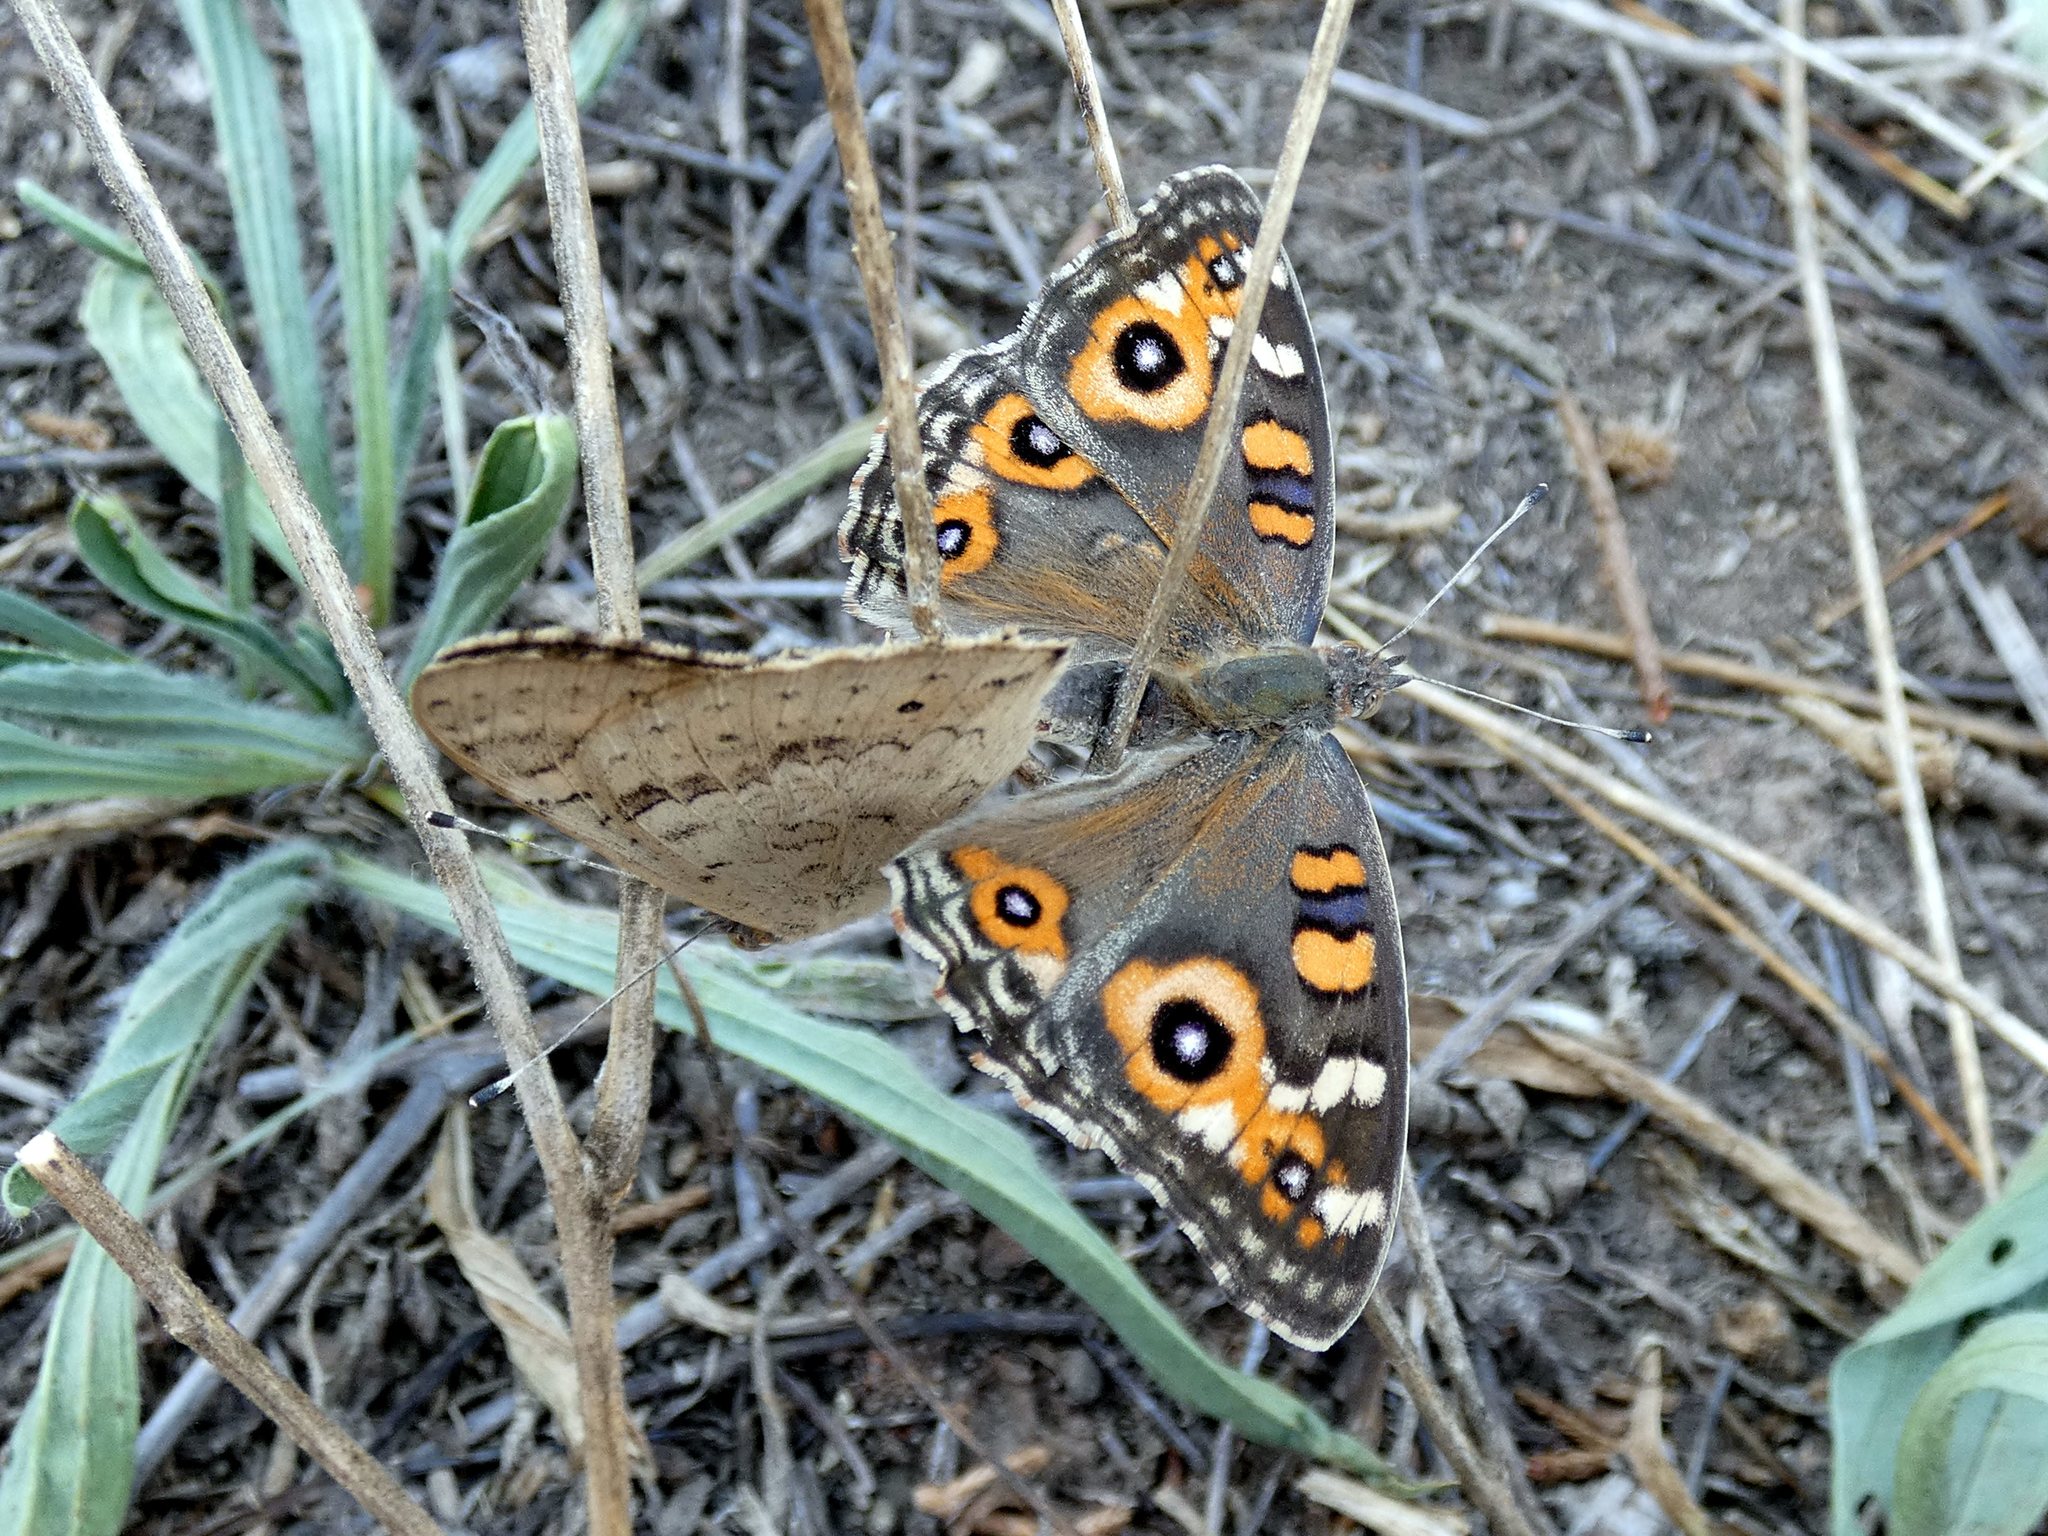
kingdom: Animalia
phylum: Arthropoda
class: Insecta
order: Lepidoptera
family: Nymphalidae
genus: Junonia
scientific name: Junonia villida
